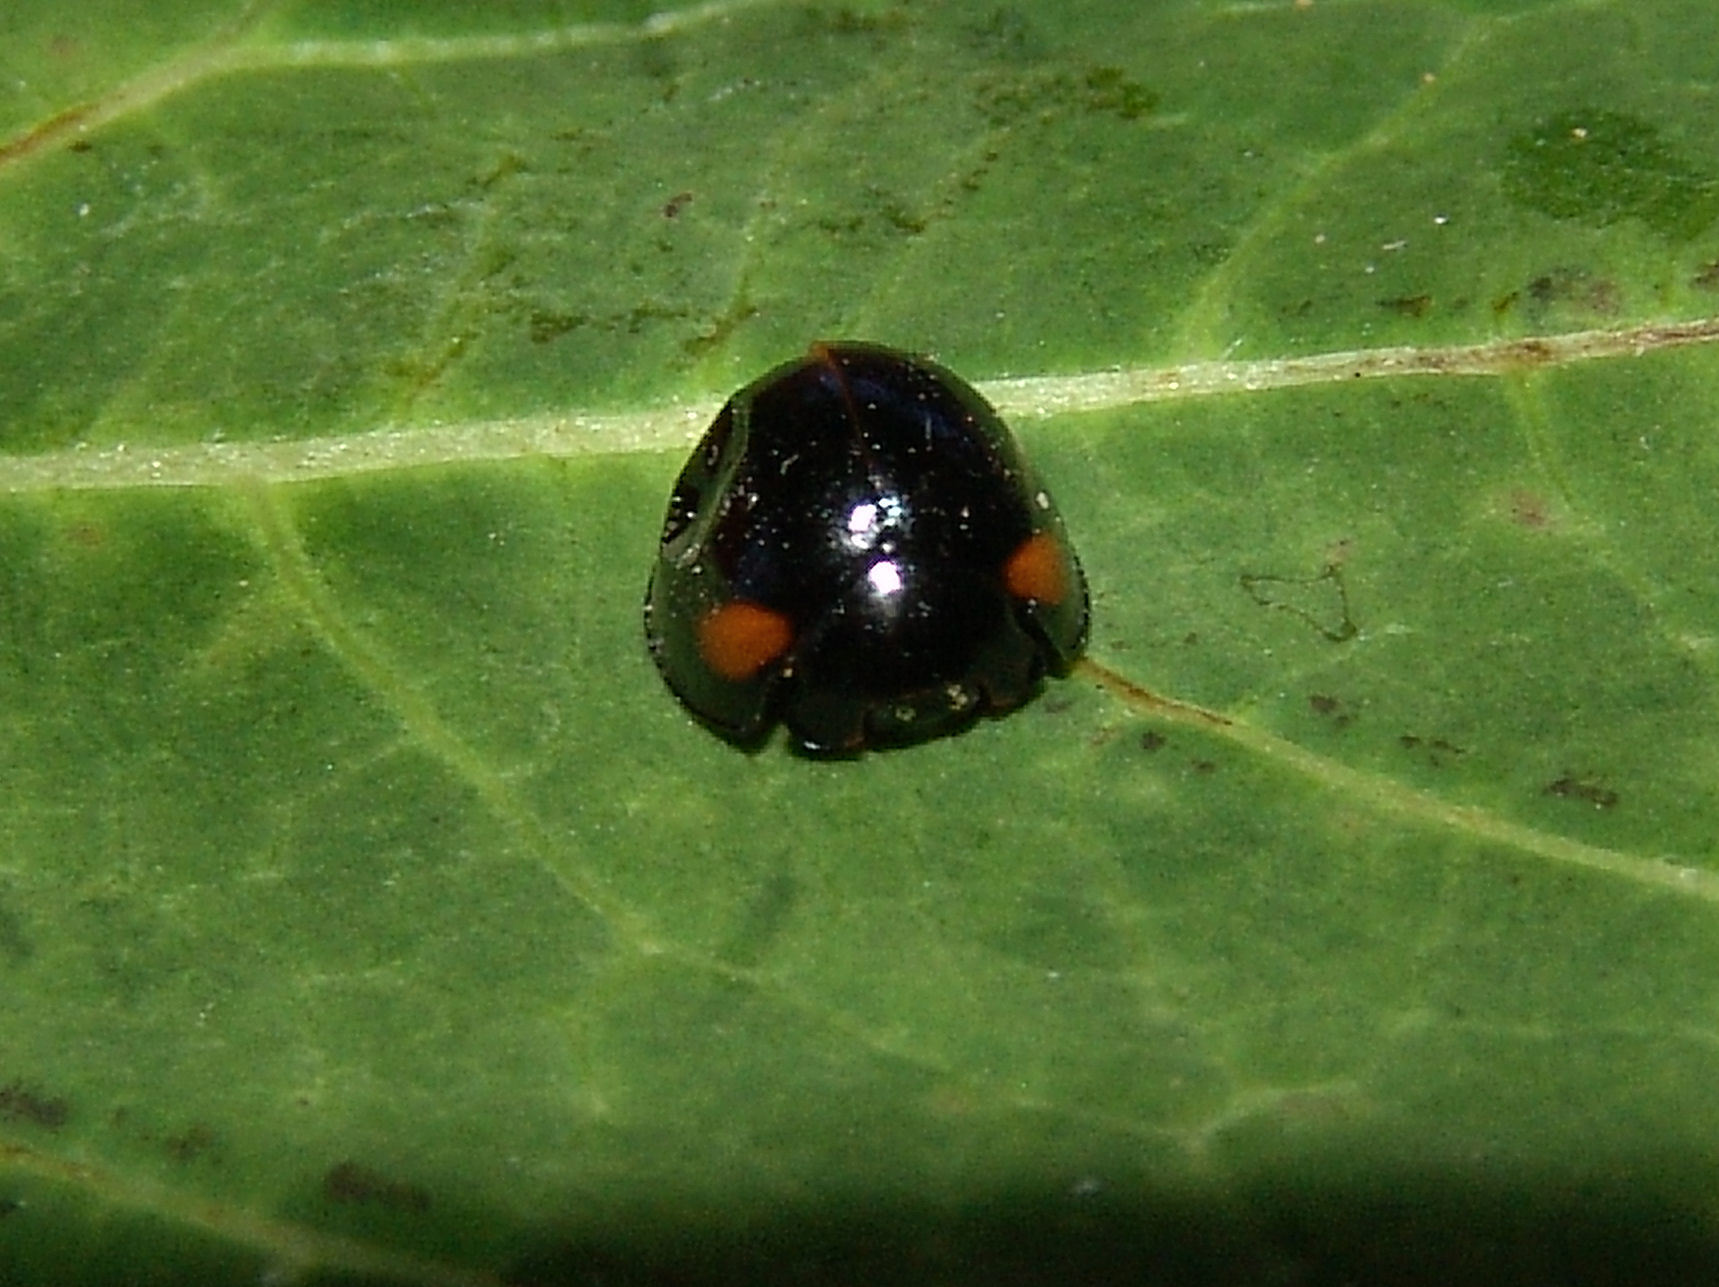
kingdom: Animalia
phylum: Arthropoda
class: Insecta
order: Coleoptera
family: Coccinellidae
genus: Axion
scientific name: Axion tripustulatum
